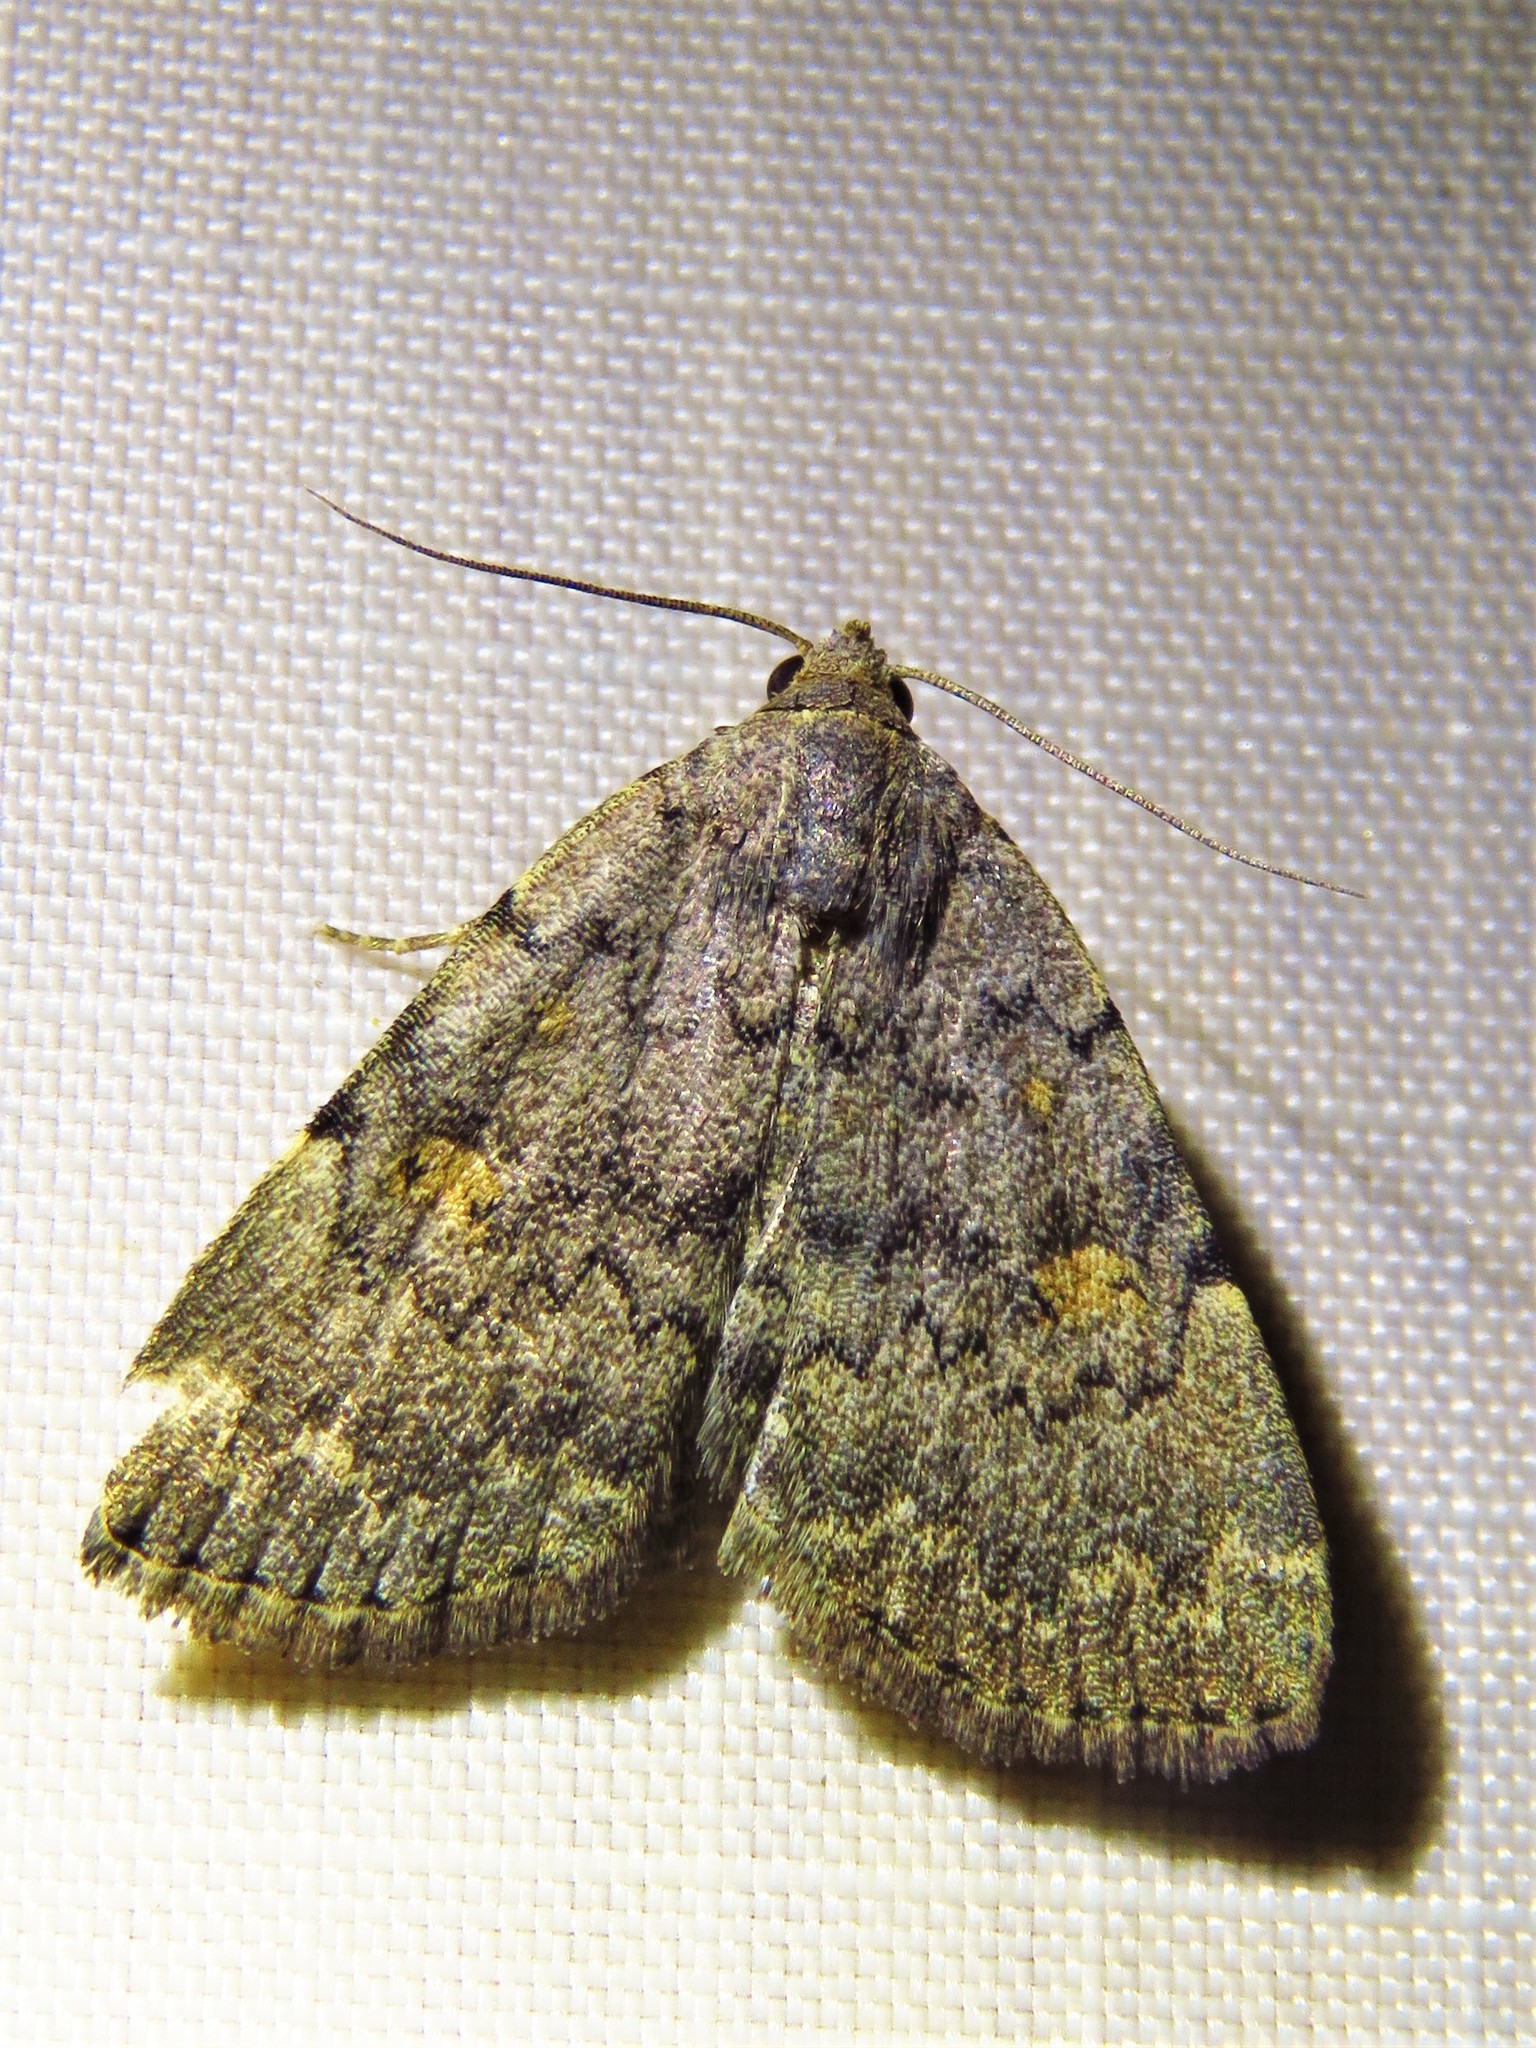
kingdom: Animalia
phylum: Arthropoda
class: Insecta
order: Lepidoptera
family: Erebidae
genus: Idia
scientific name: Idia aemula
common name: Common idia moth
